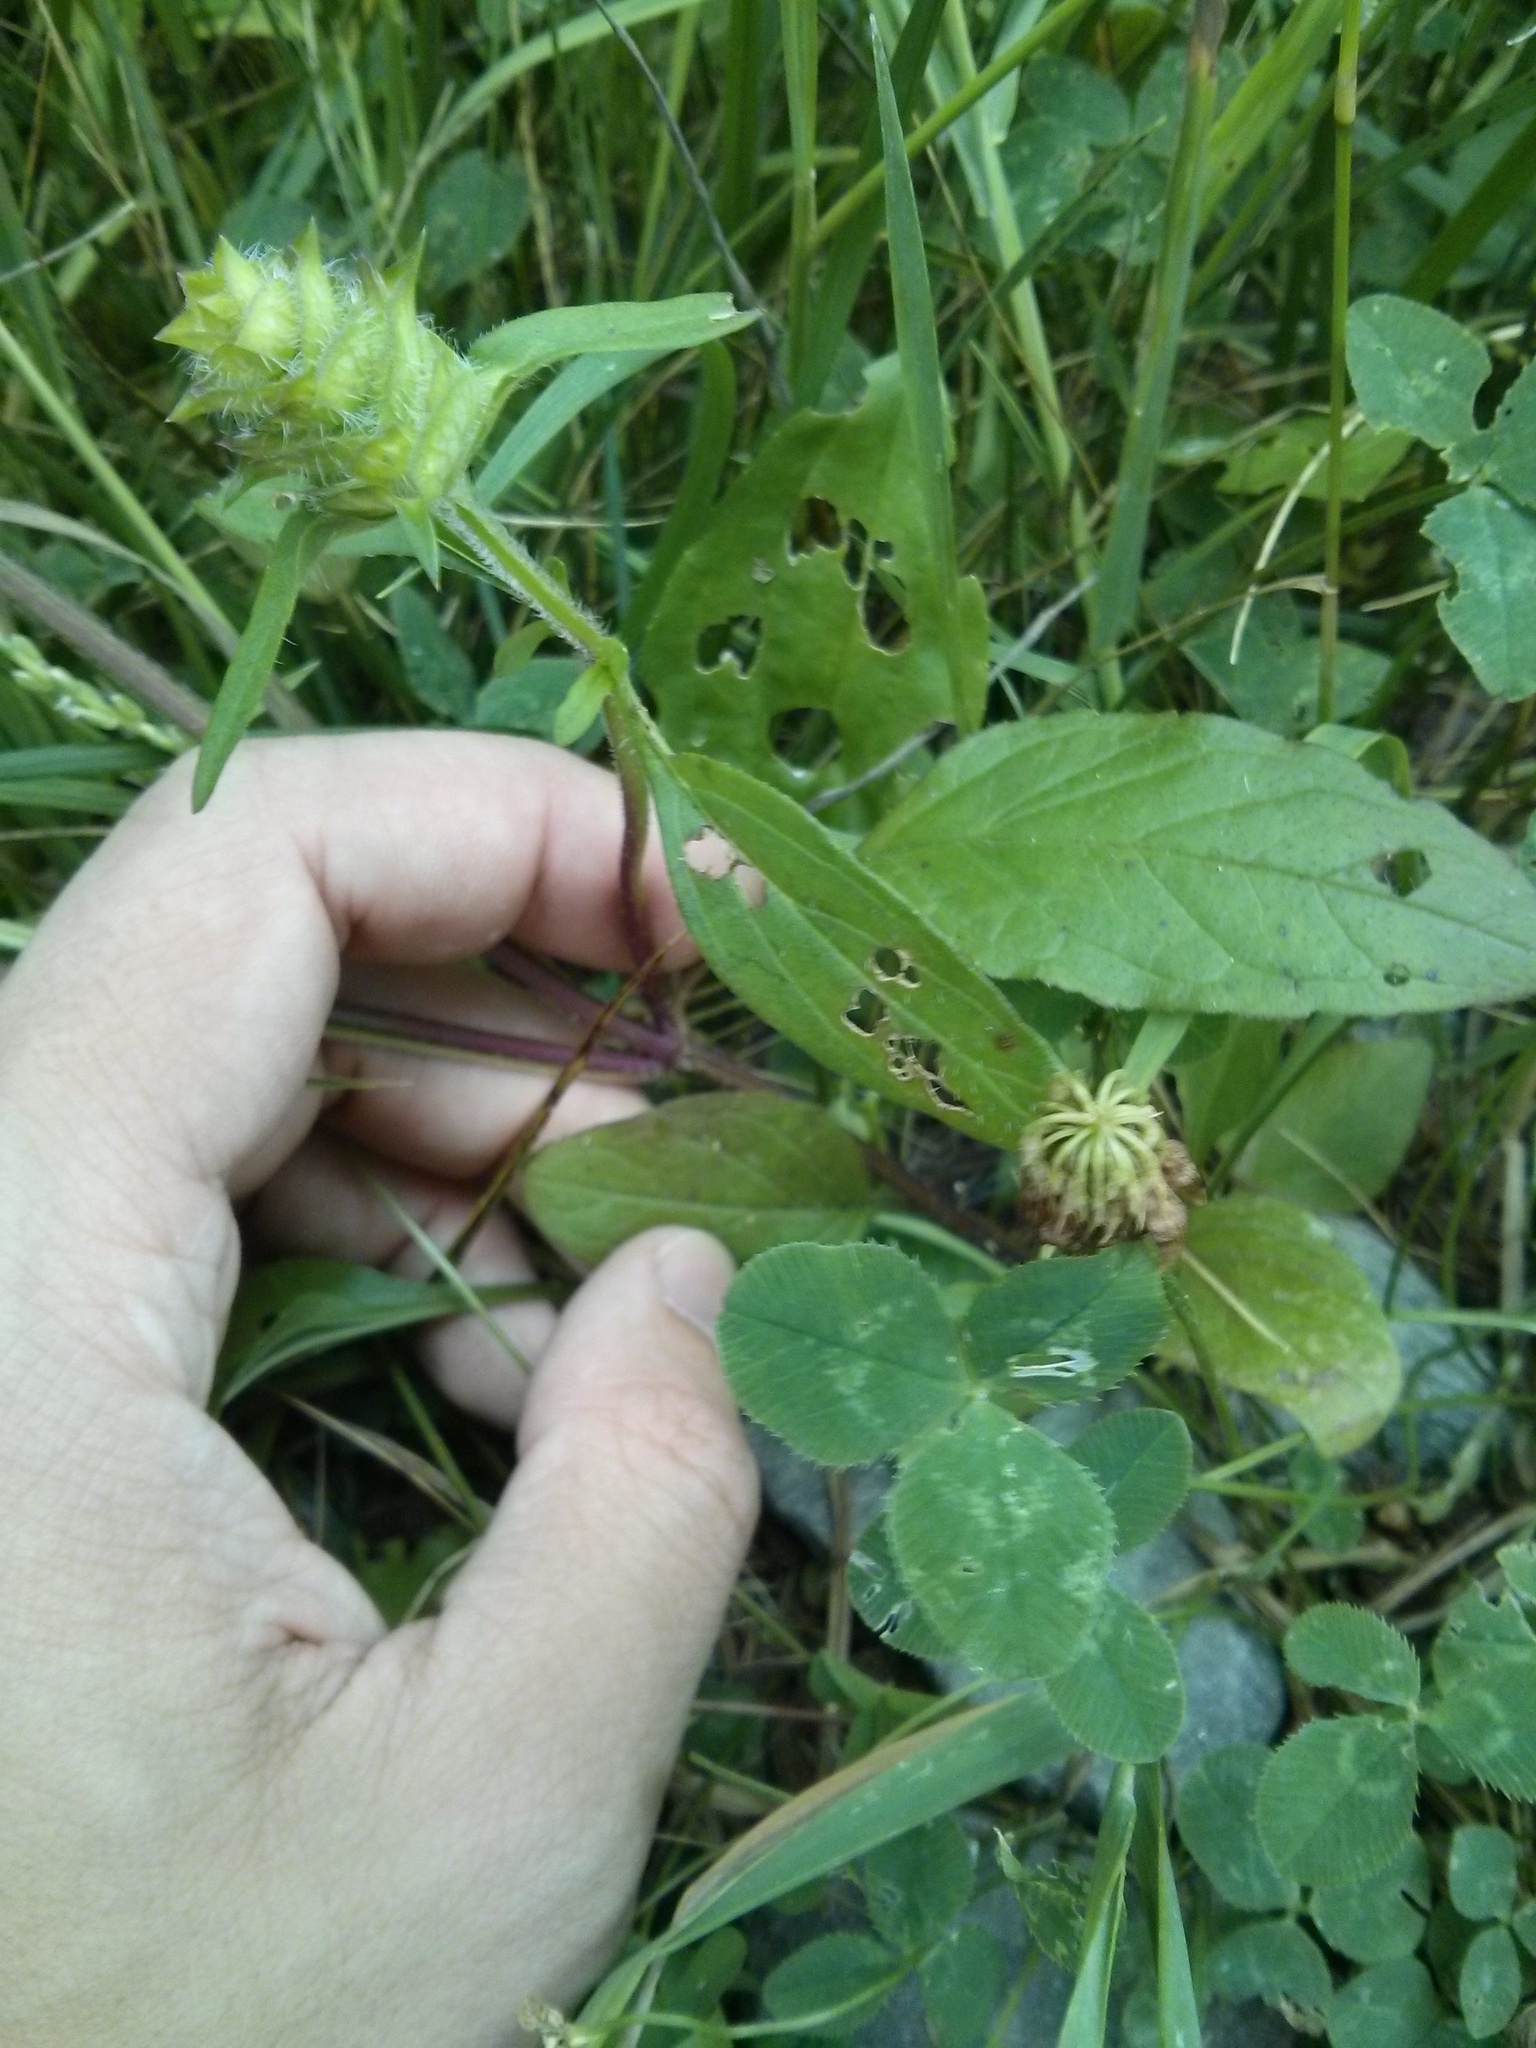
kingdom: Plantae
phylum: Tracheophyta
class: Magnoliopsida
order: Lamiales
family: Lamiaceae
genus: Prunella
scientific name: Prunella vulgaris
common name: Heal-all
